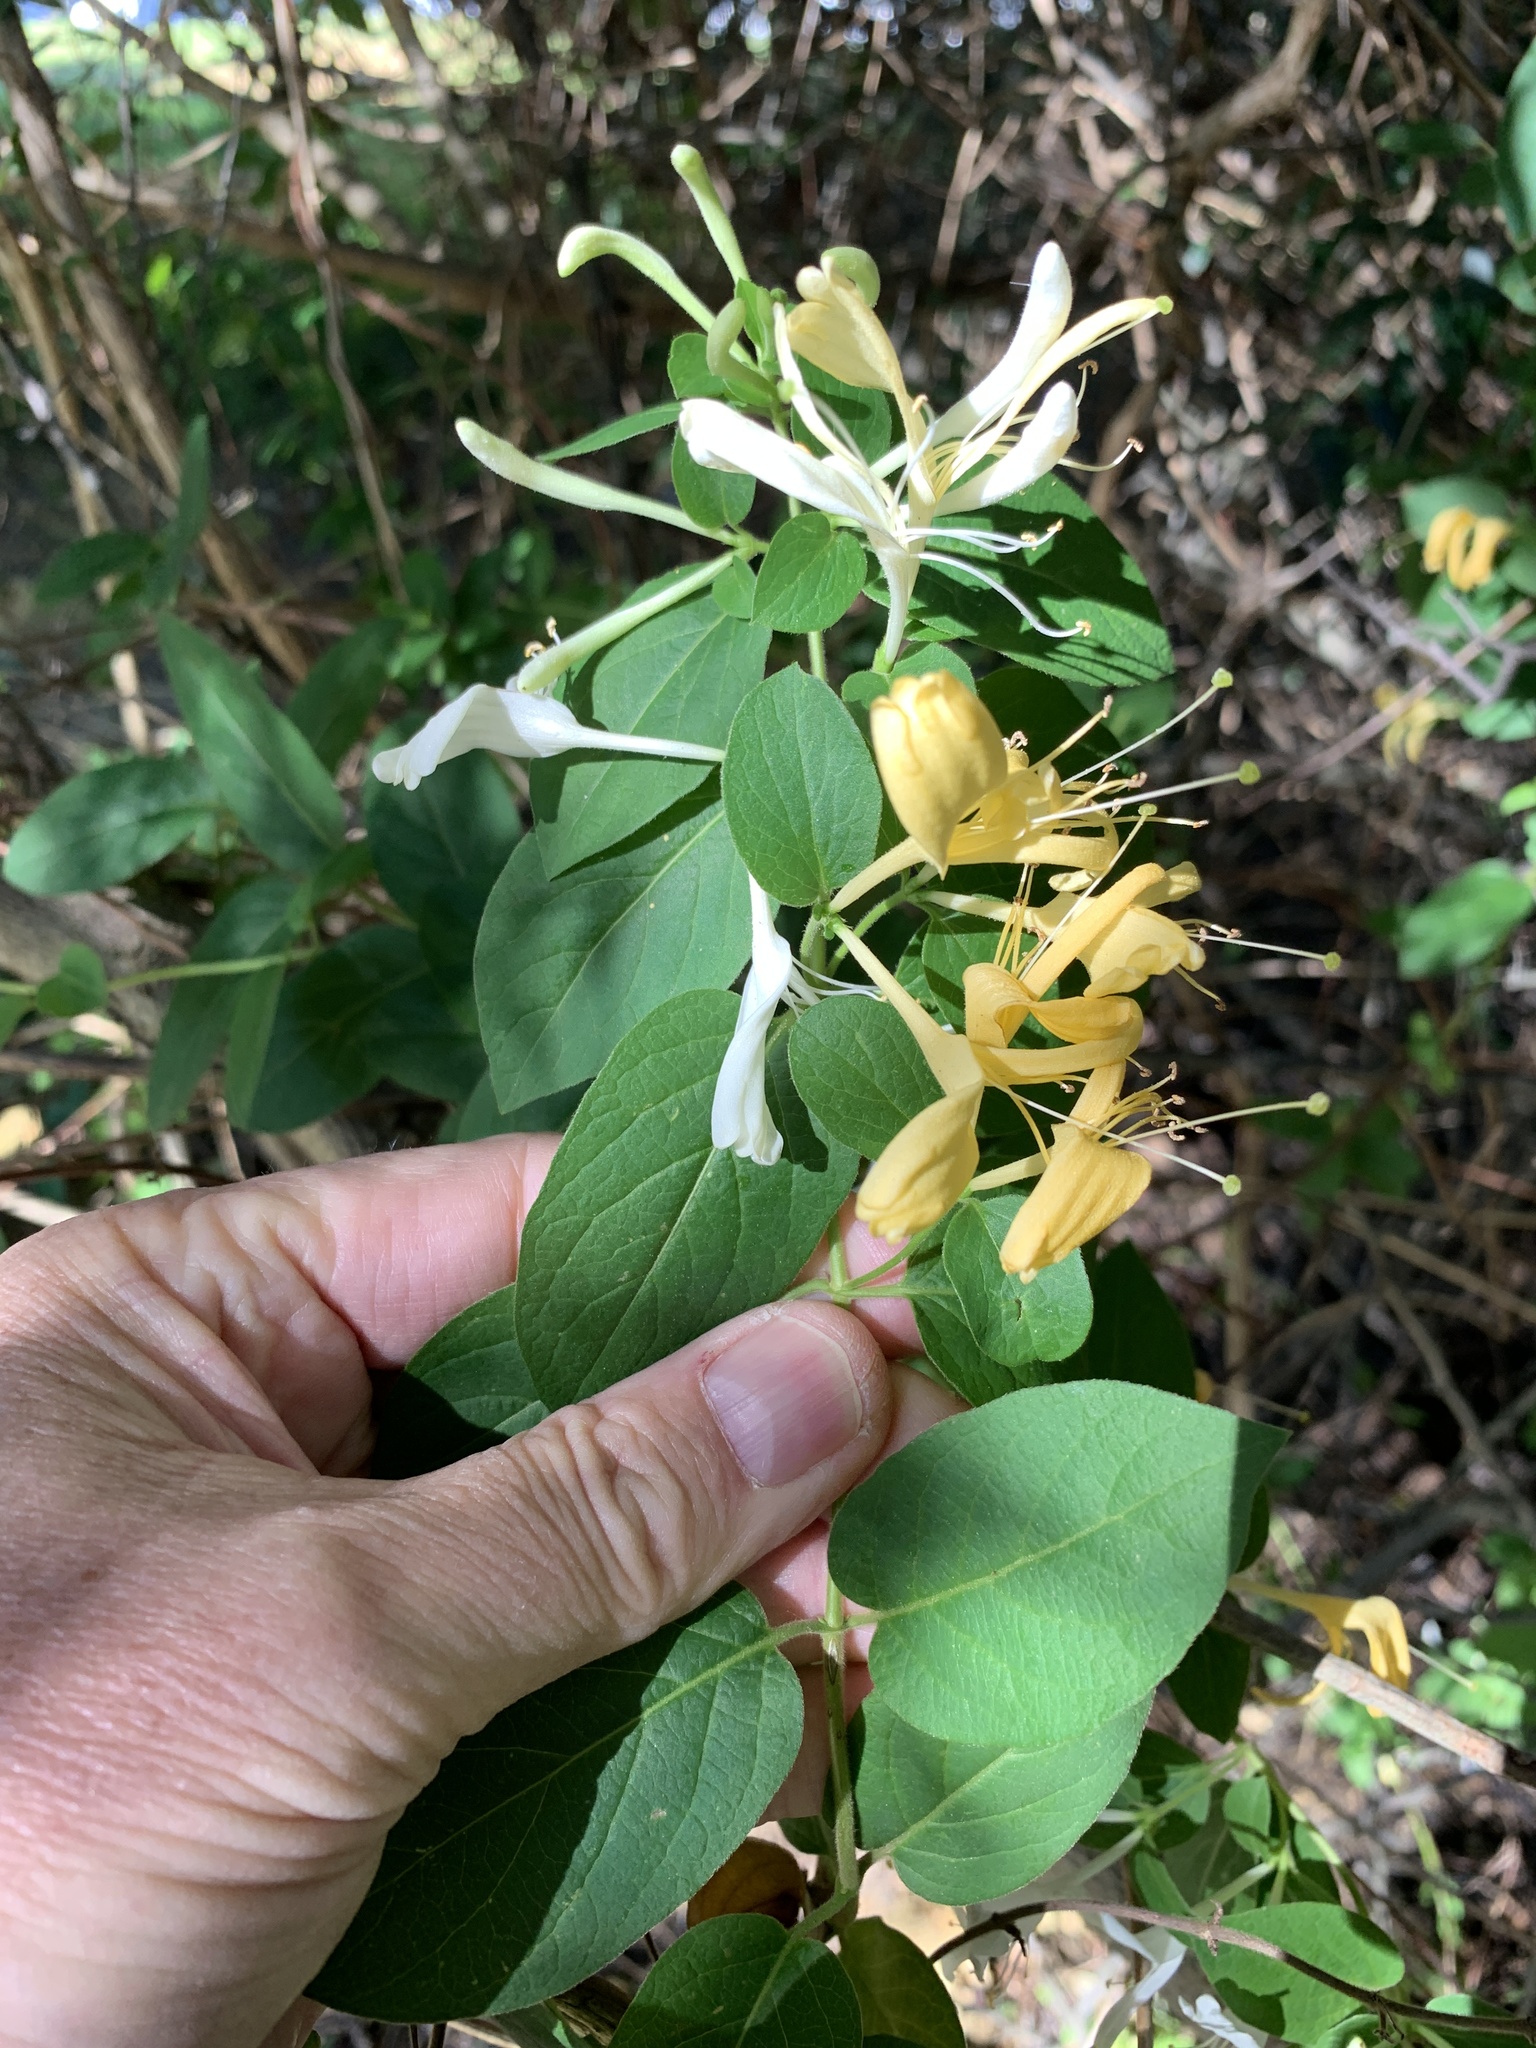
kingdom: Plantae
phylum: Tracheophyta
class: Magnoliopsida
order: Dipsacales
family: Caprifoliaceae
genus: Lonicera
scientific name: Lonicera japonica
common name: Japanese honeysuckle
